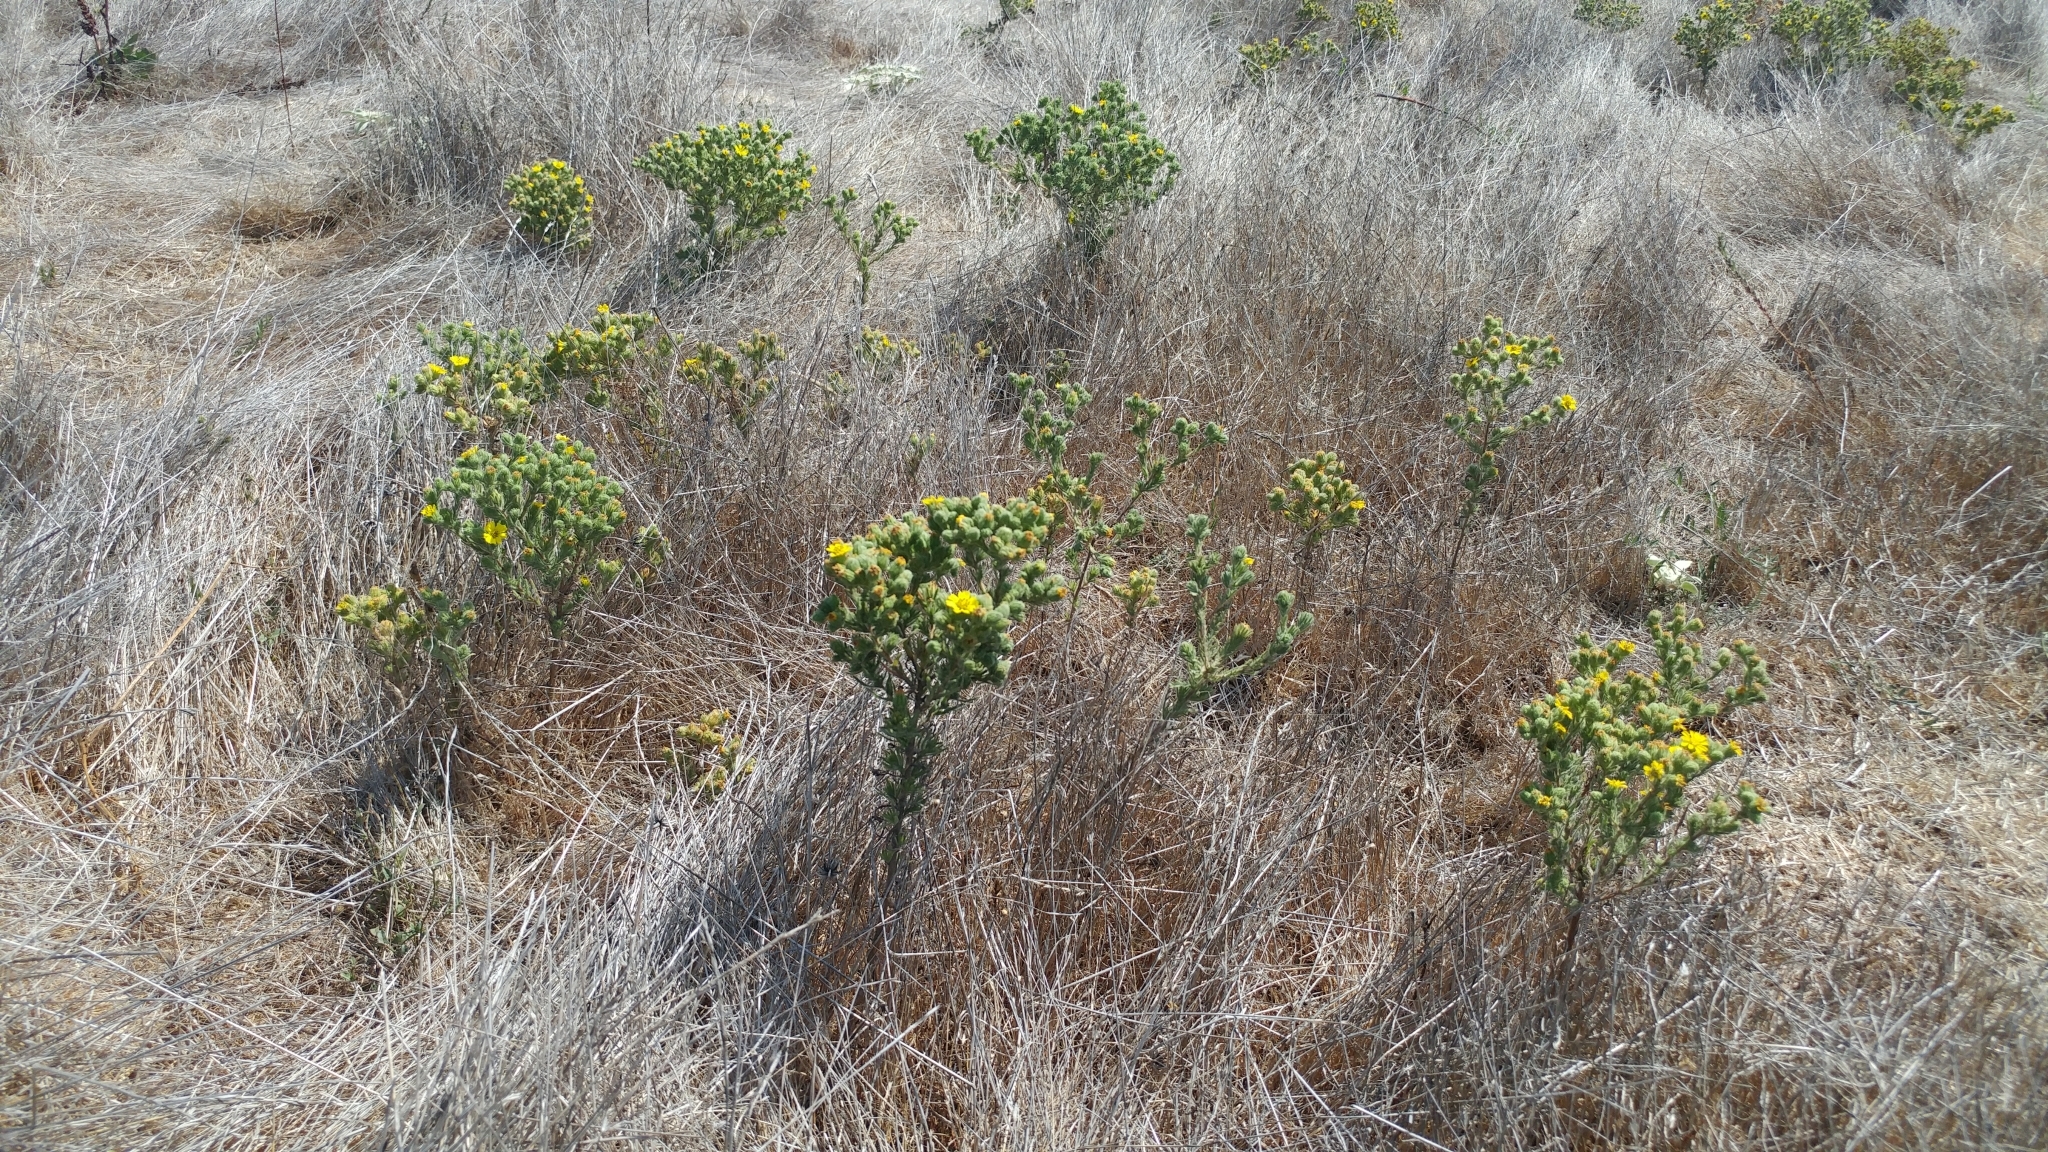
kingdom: Plantae
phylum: Tracheophyta
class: Magnoliopsida
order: Asterales
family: Asteraceae
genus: Deinandra
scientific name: Deinandra increscens
